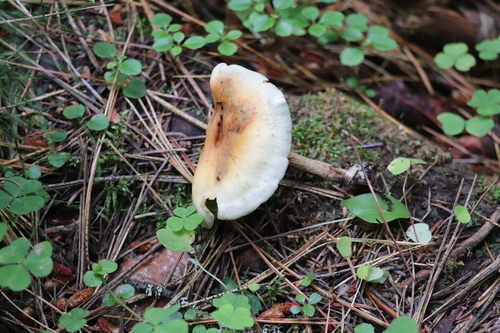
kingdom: Fungi
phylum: Basidiomycota
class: Agaricomycetes
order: Agaricales
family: Strophariaceae
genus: Hypholoma
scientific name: Hypholoma capnoides
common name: Conifer tuft
